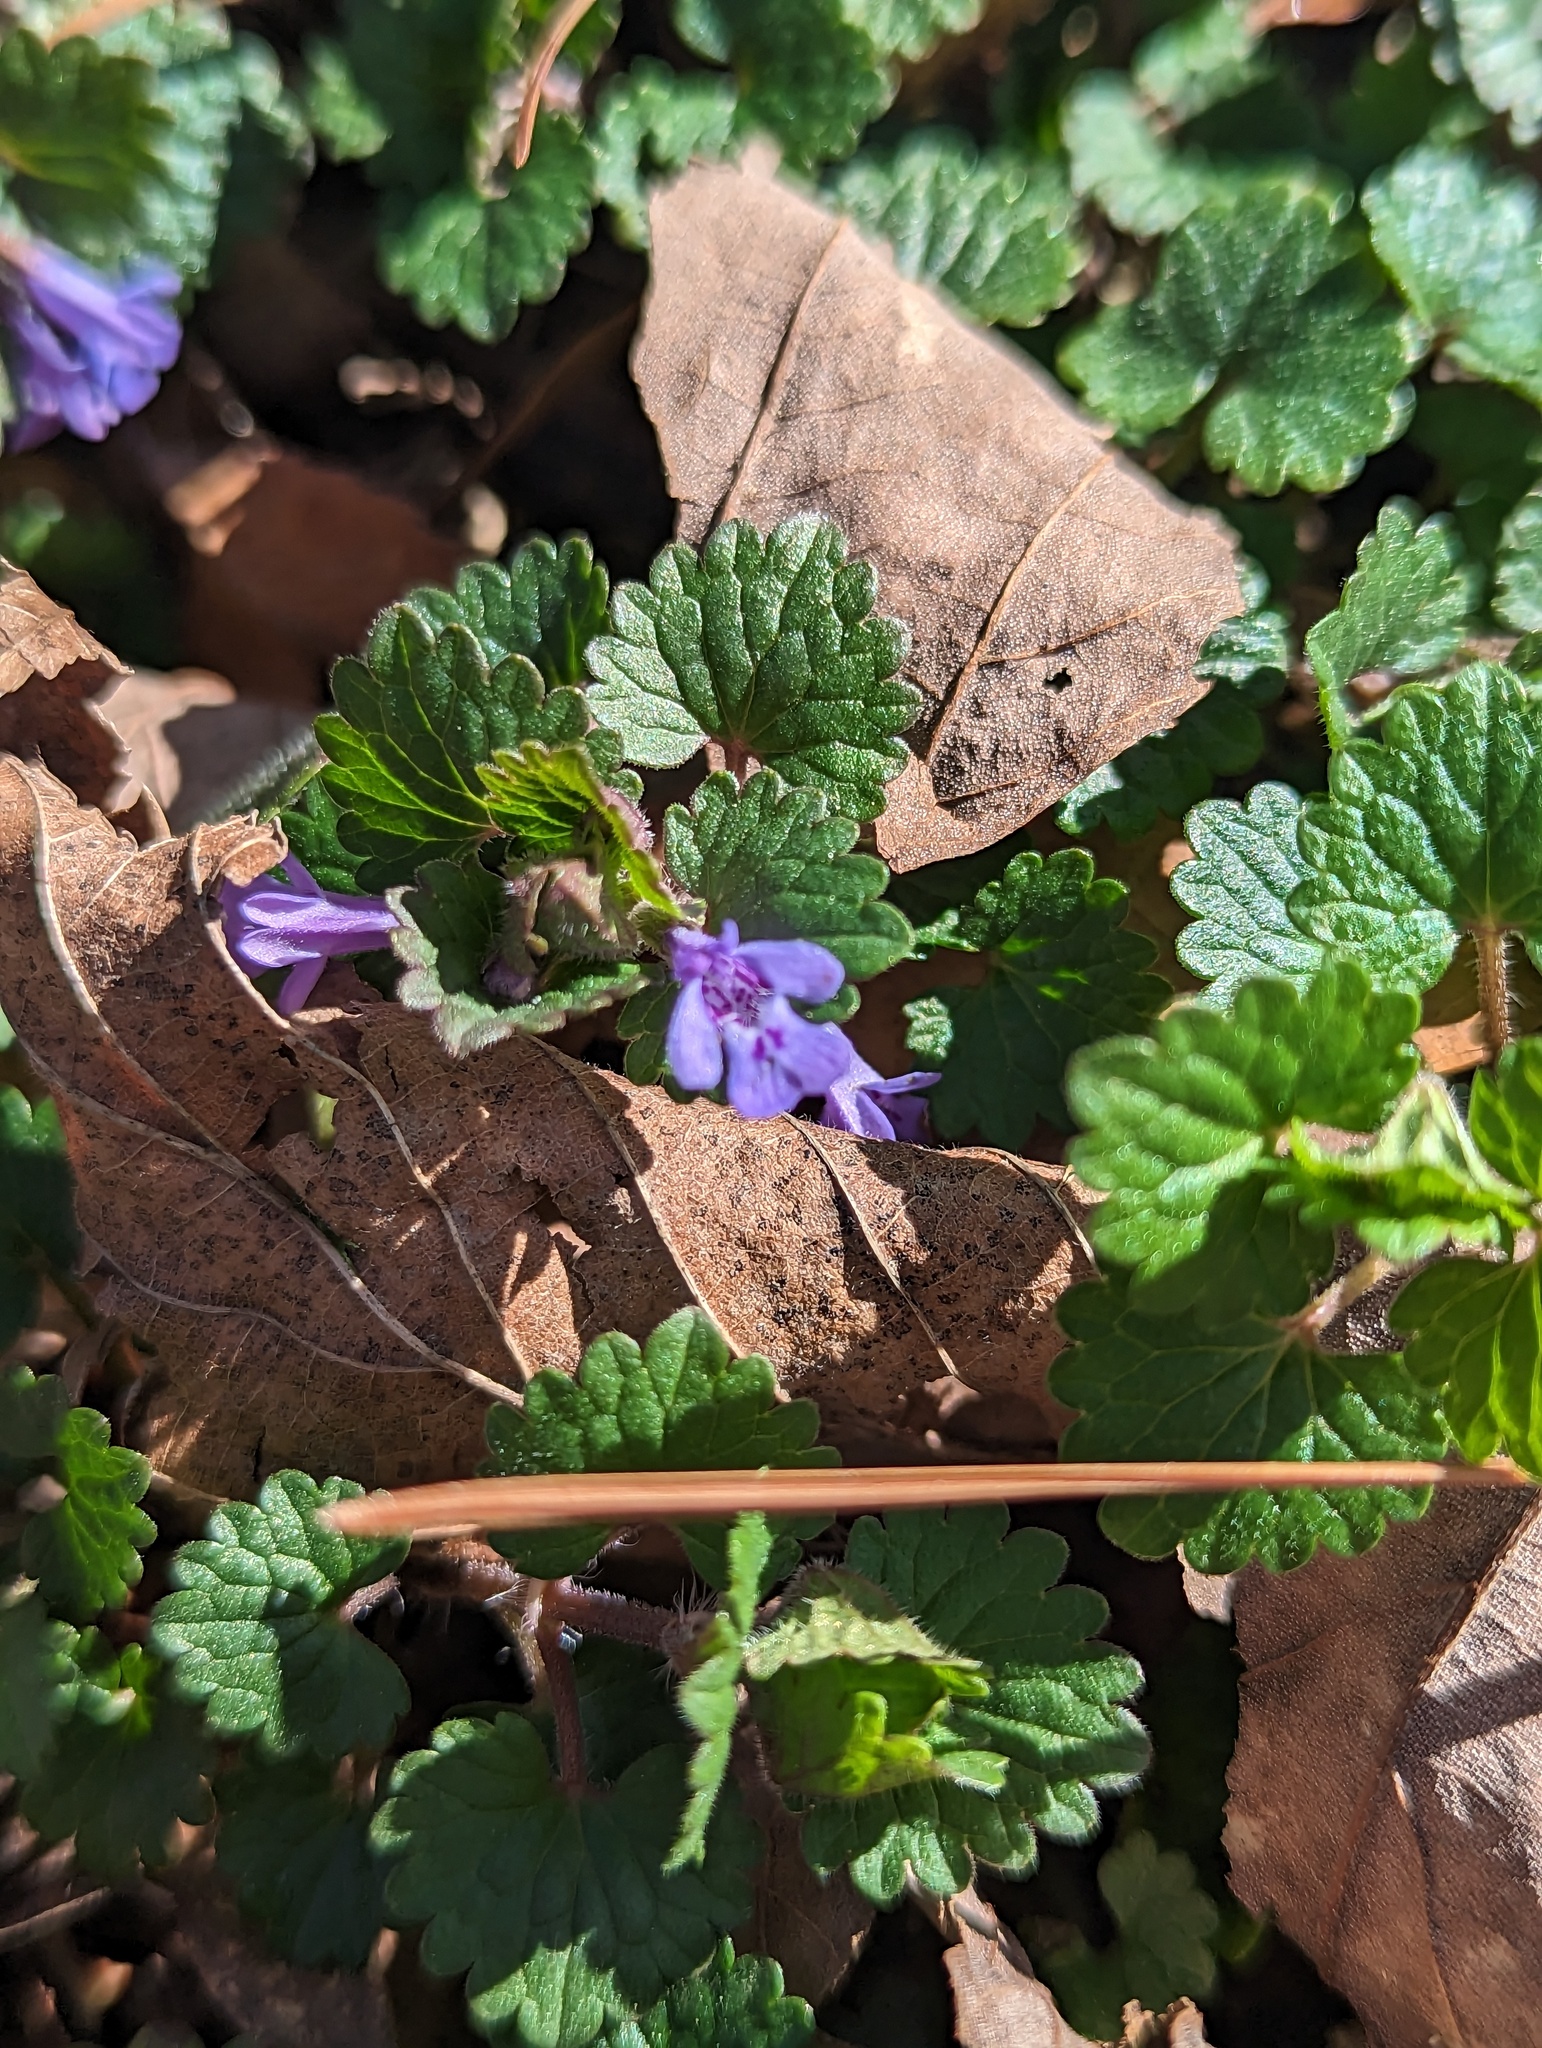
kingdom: Plantae
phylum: Tracheophyta
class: Magnoliopsida
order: Lamiales
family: Lamiaceae
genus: Glechoma
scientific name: Glechoma hederacea
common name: Ground ivy
